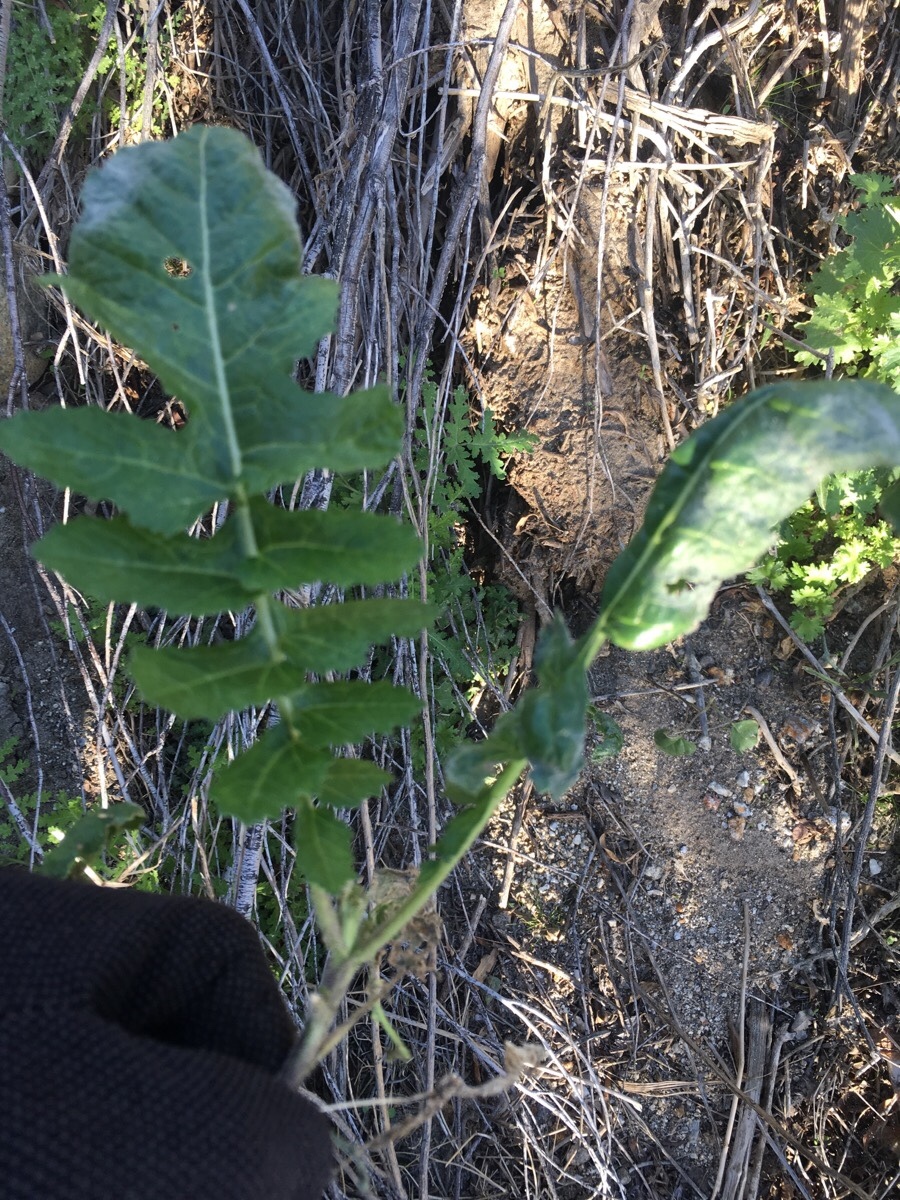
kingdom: Plantae
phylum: Tracheophyta
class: Magnoliopsida
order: Brassicales
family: Brassicaceae
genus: Brassica
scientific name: Brassica tournefortii
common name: Pale cabbage
